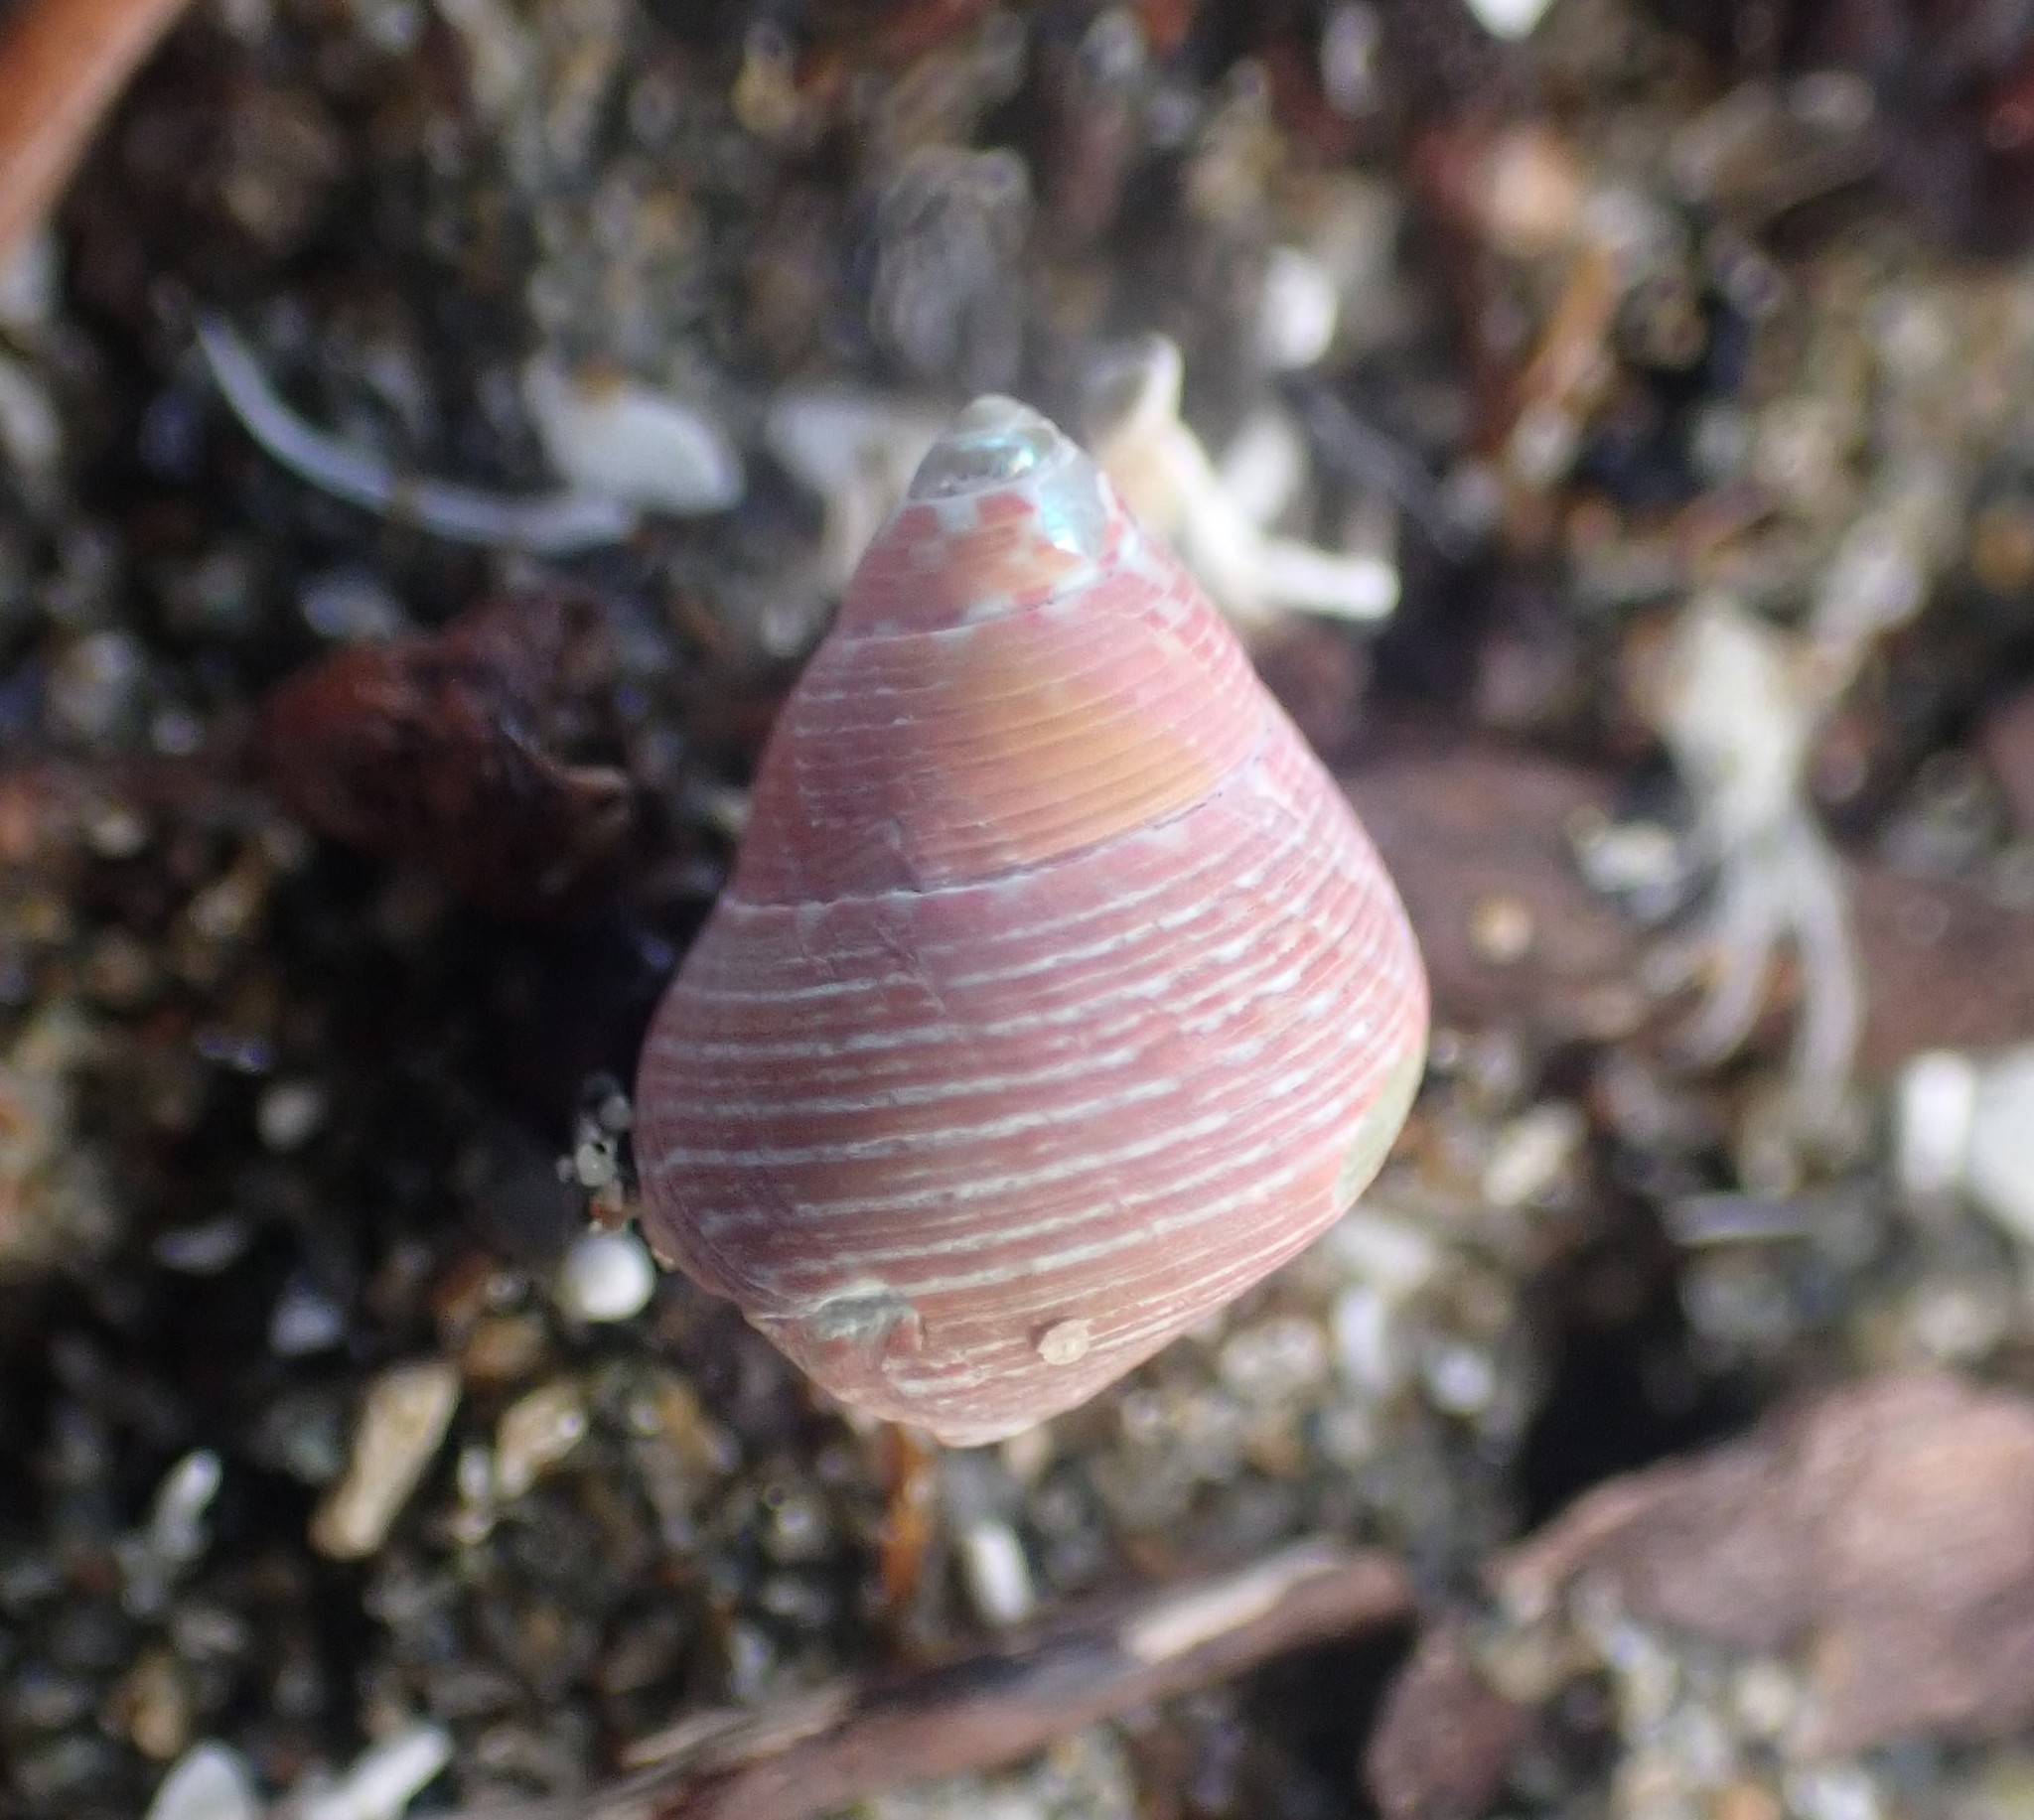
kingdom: Animalia
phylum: Mollusca
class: Gastropoda
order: Trochida
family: Trochidae
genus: Cantharidus
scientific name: Cantharidus dilatatus
